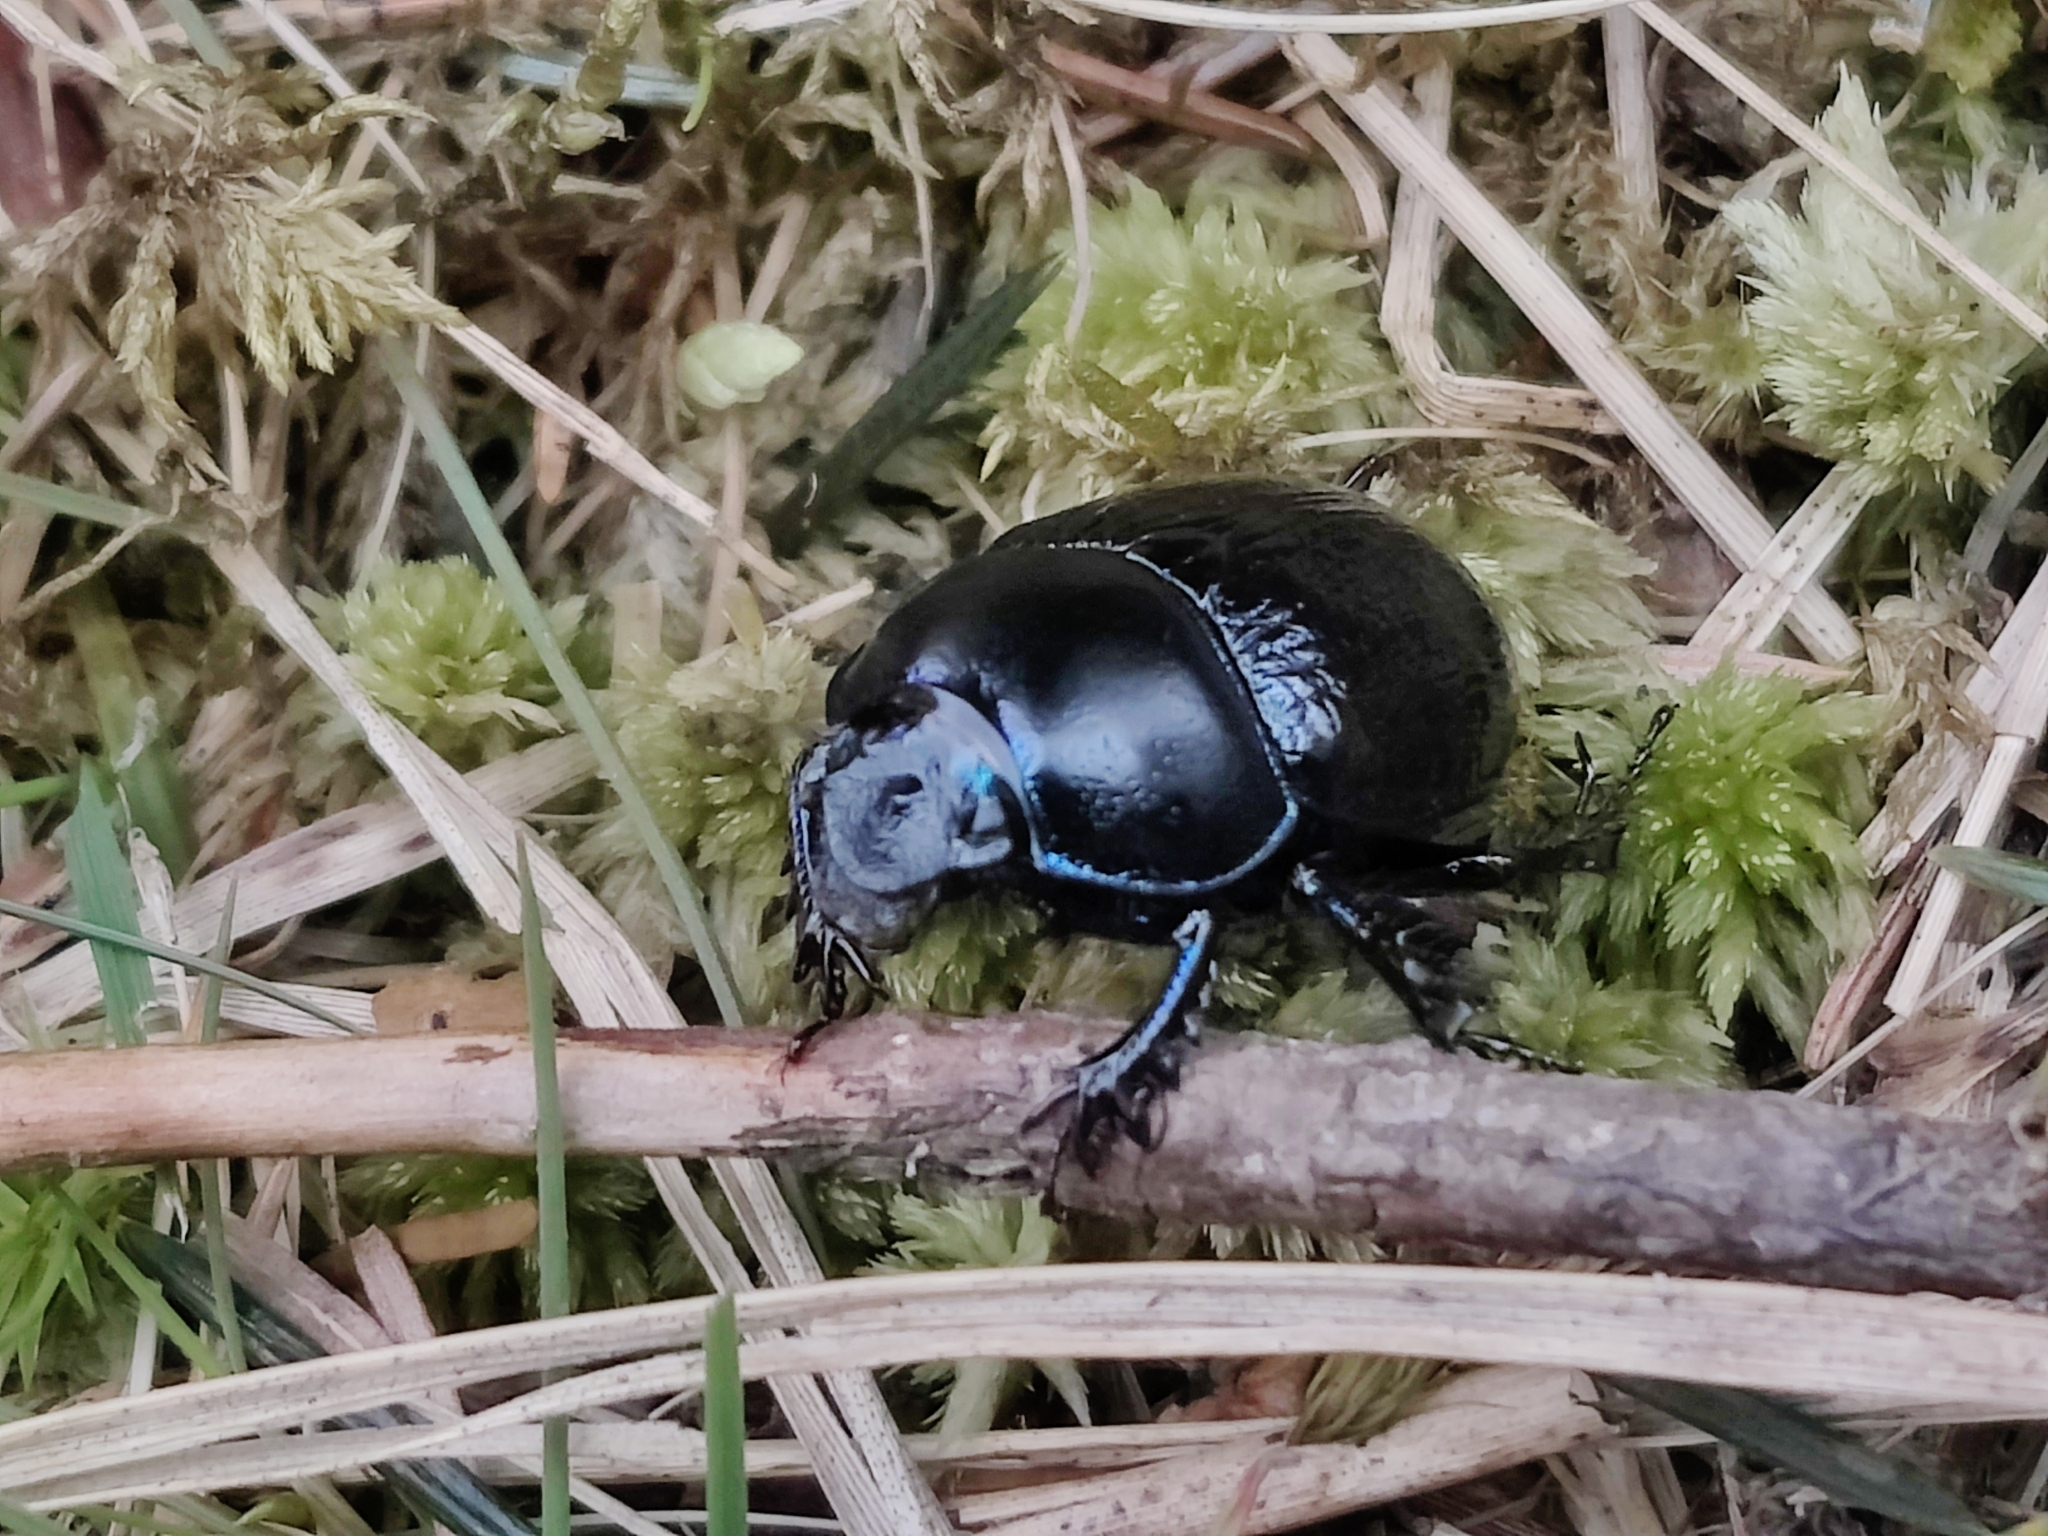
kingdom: Animalia
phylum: Arthropoda
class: Insecta
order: Coleoptera
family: Geotrupidae
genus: Anoplotrupes
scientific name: Anoplotrupes stercorosus
